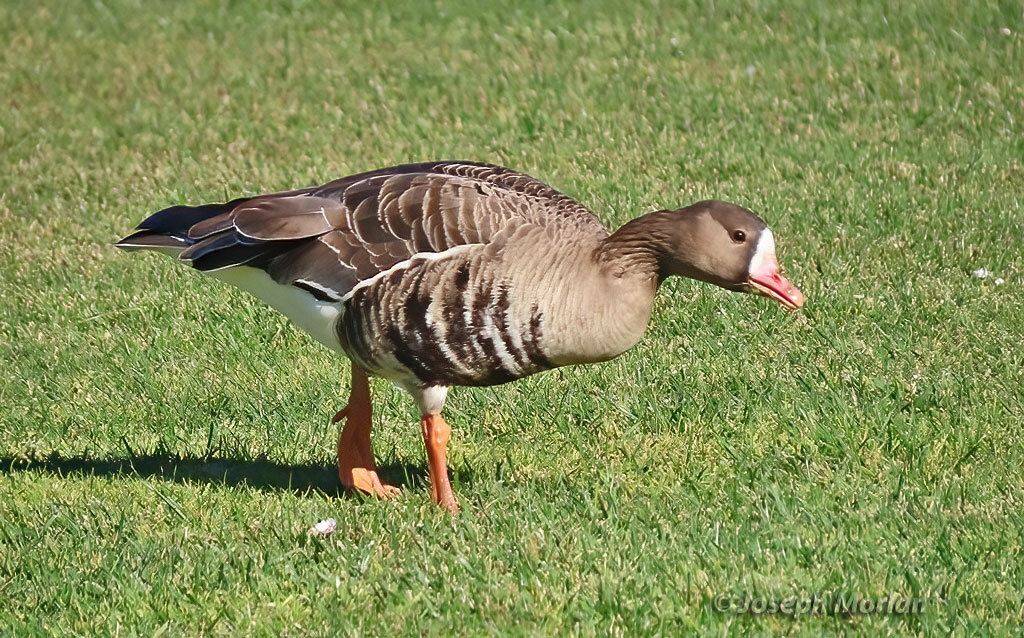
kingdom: Animalia
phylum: Chordata
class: Aves
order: Anseriformes
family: Anatidae
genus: Anser
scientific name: Anser albifrons
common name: Greater white-fronted goose
